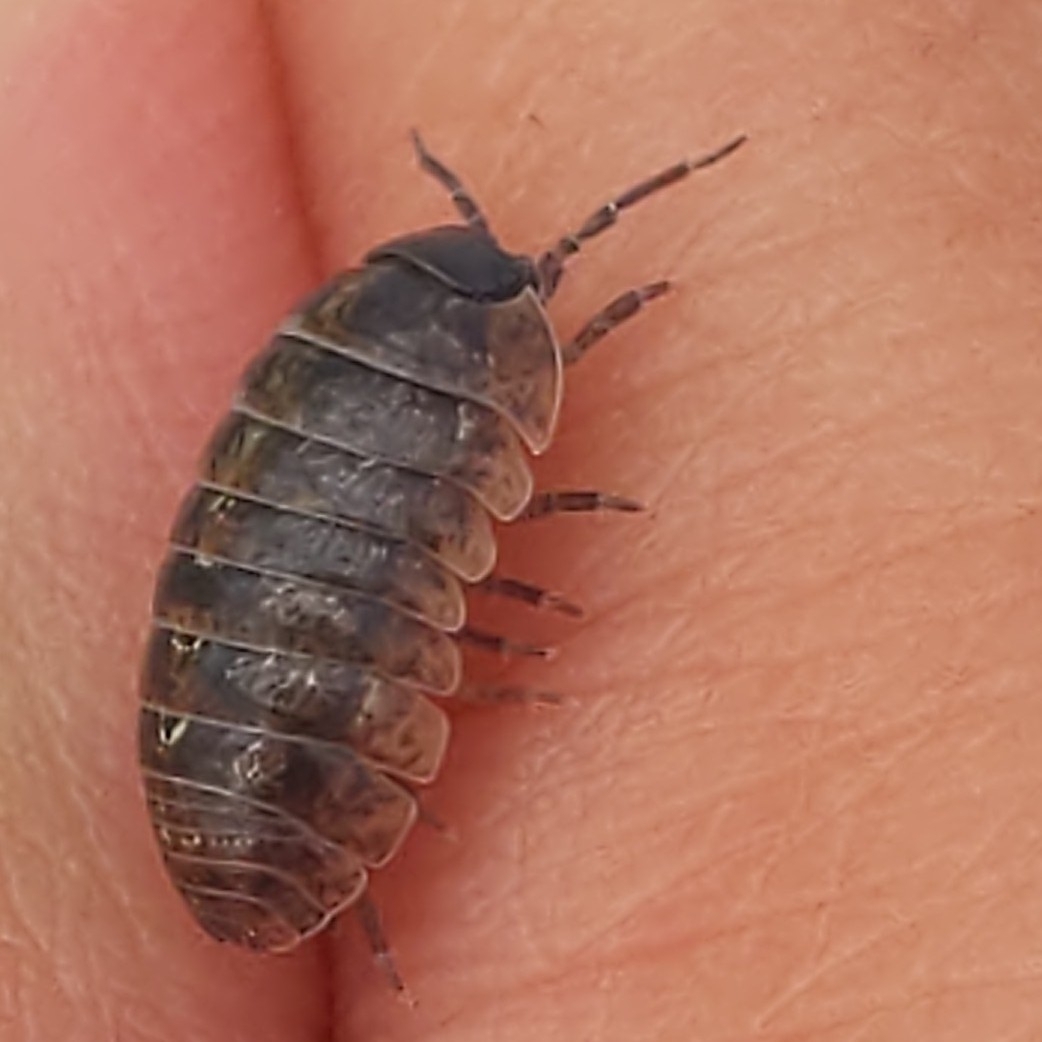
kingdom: Animalia
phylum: Arthropoda
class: Malacostraca
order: Isopoda
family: Armadillidiidae
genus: Armadillidium
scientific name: Armadillidium vulgare
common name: Common pill woodlouse
